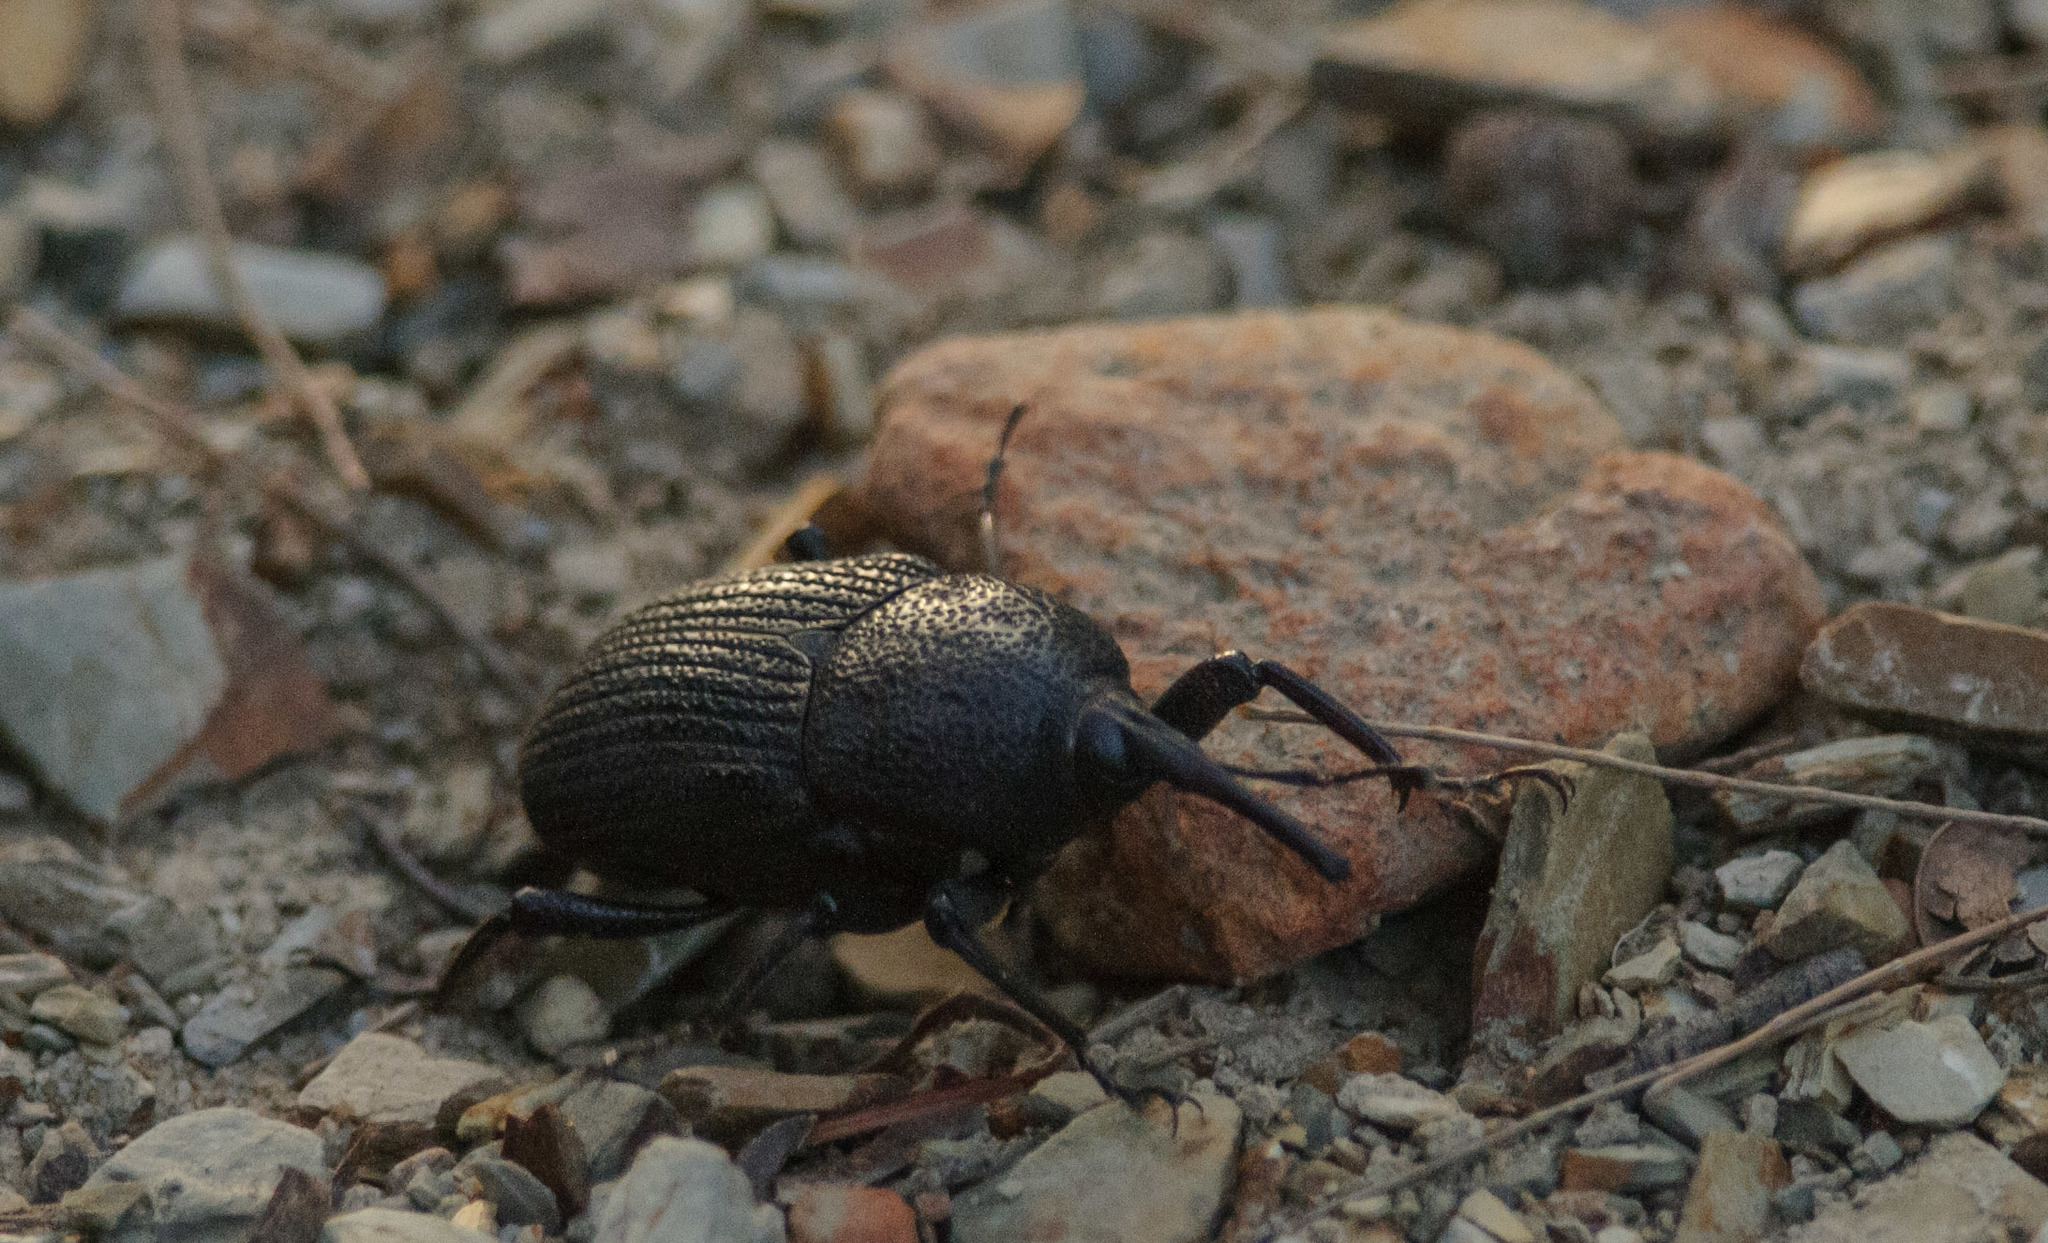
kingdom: Animalia
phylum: Arthropoda
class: Insecta
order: Coleoptera
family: Dryophthoridae
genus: Trigonotarsus
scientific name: Trigonotarsus calandroides
